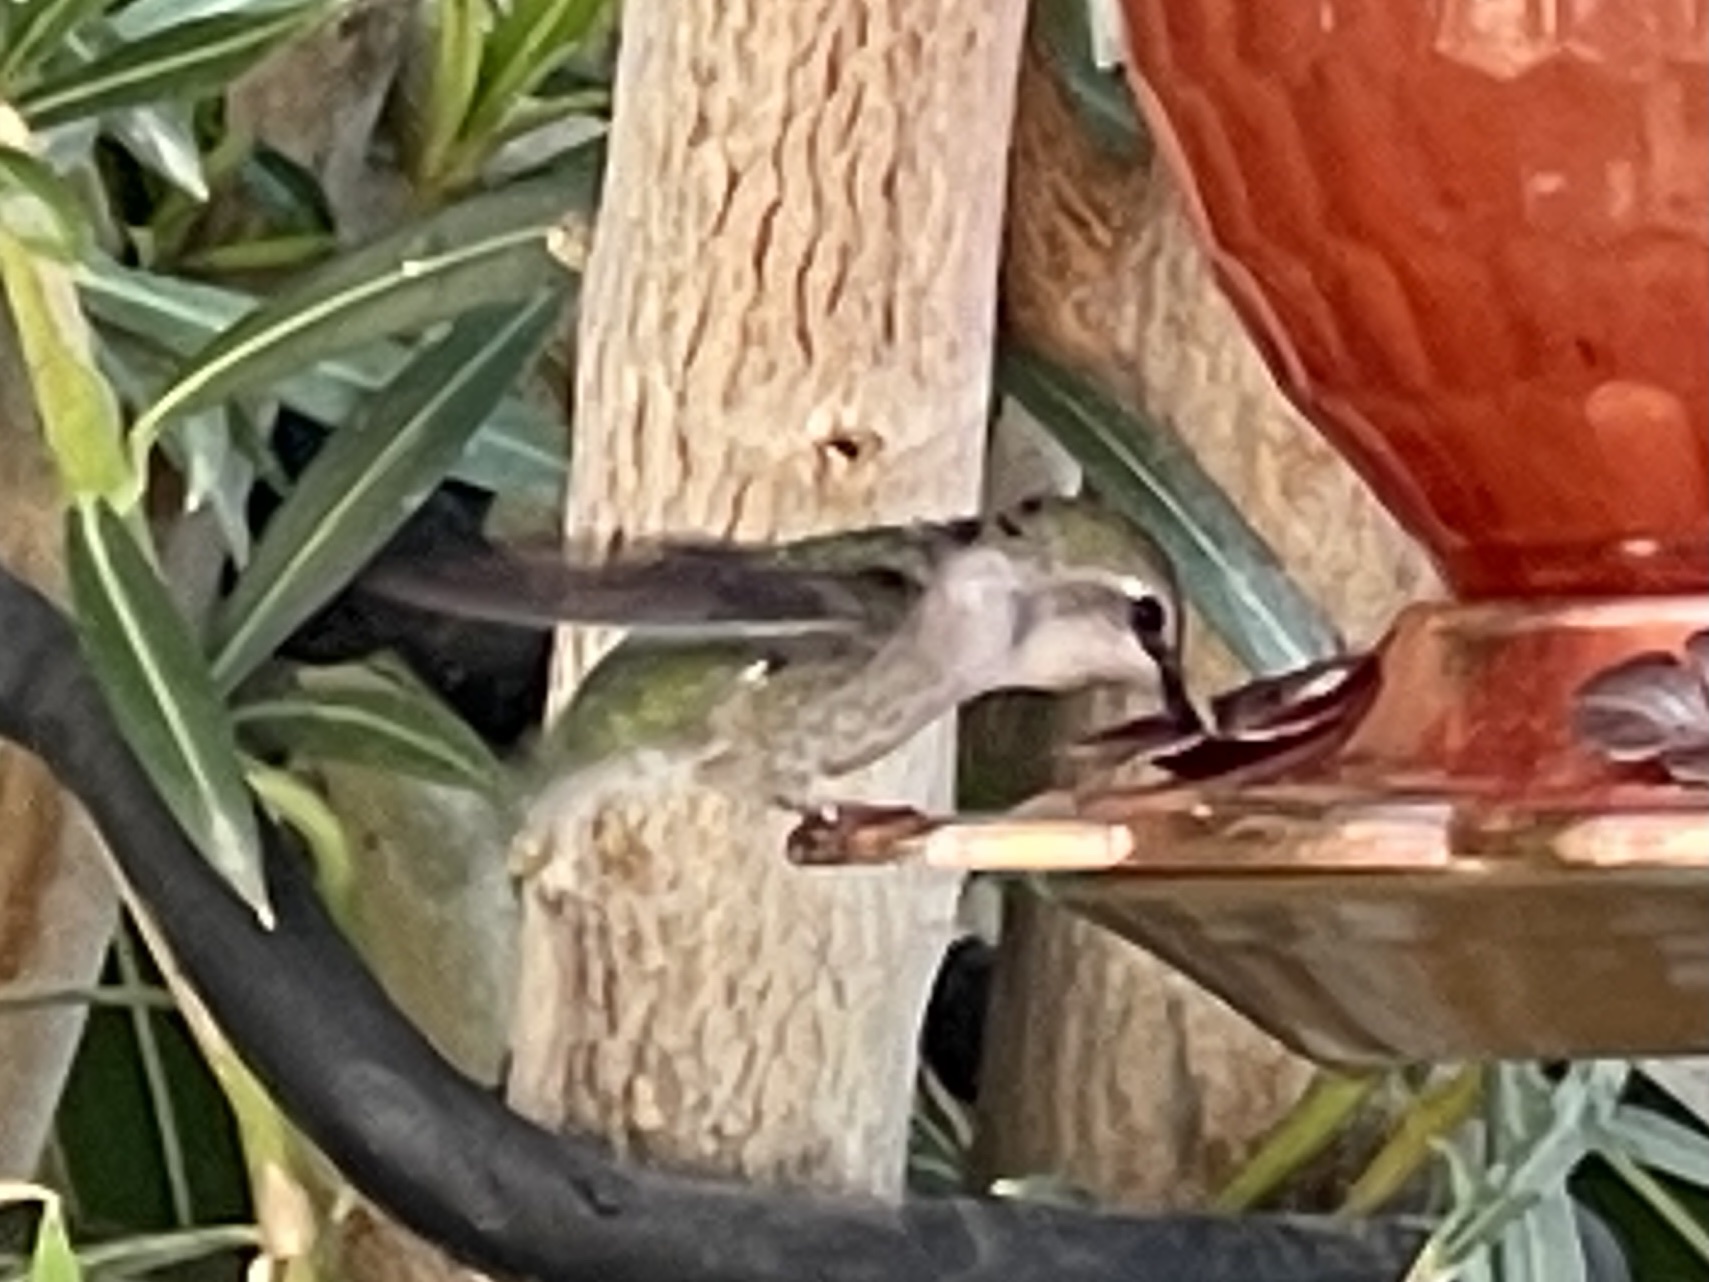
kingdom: Animalia
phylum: Chordata
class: Aves
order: Apodiformes
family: Trochilidae
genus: Calypte
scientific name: Calypte costae
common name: Costa's hummingbird
